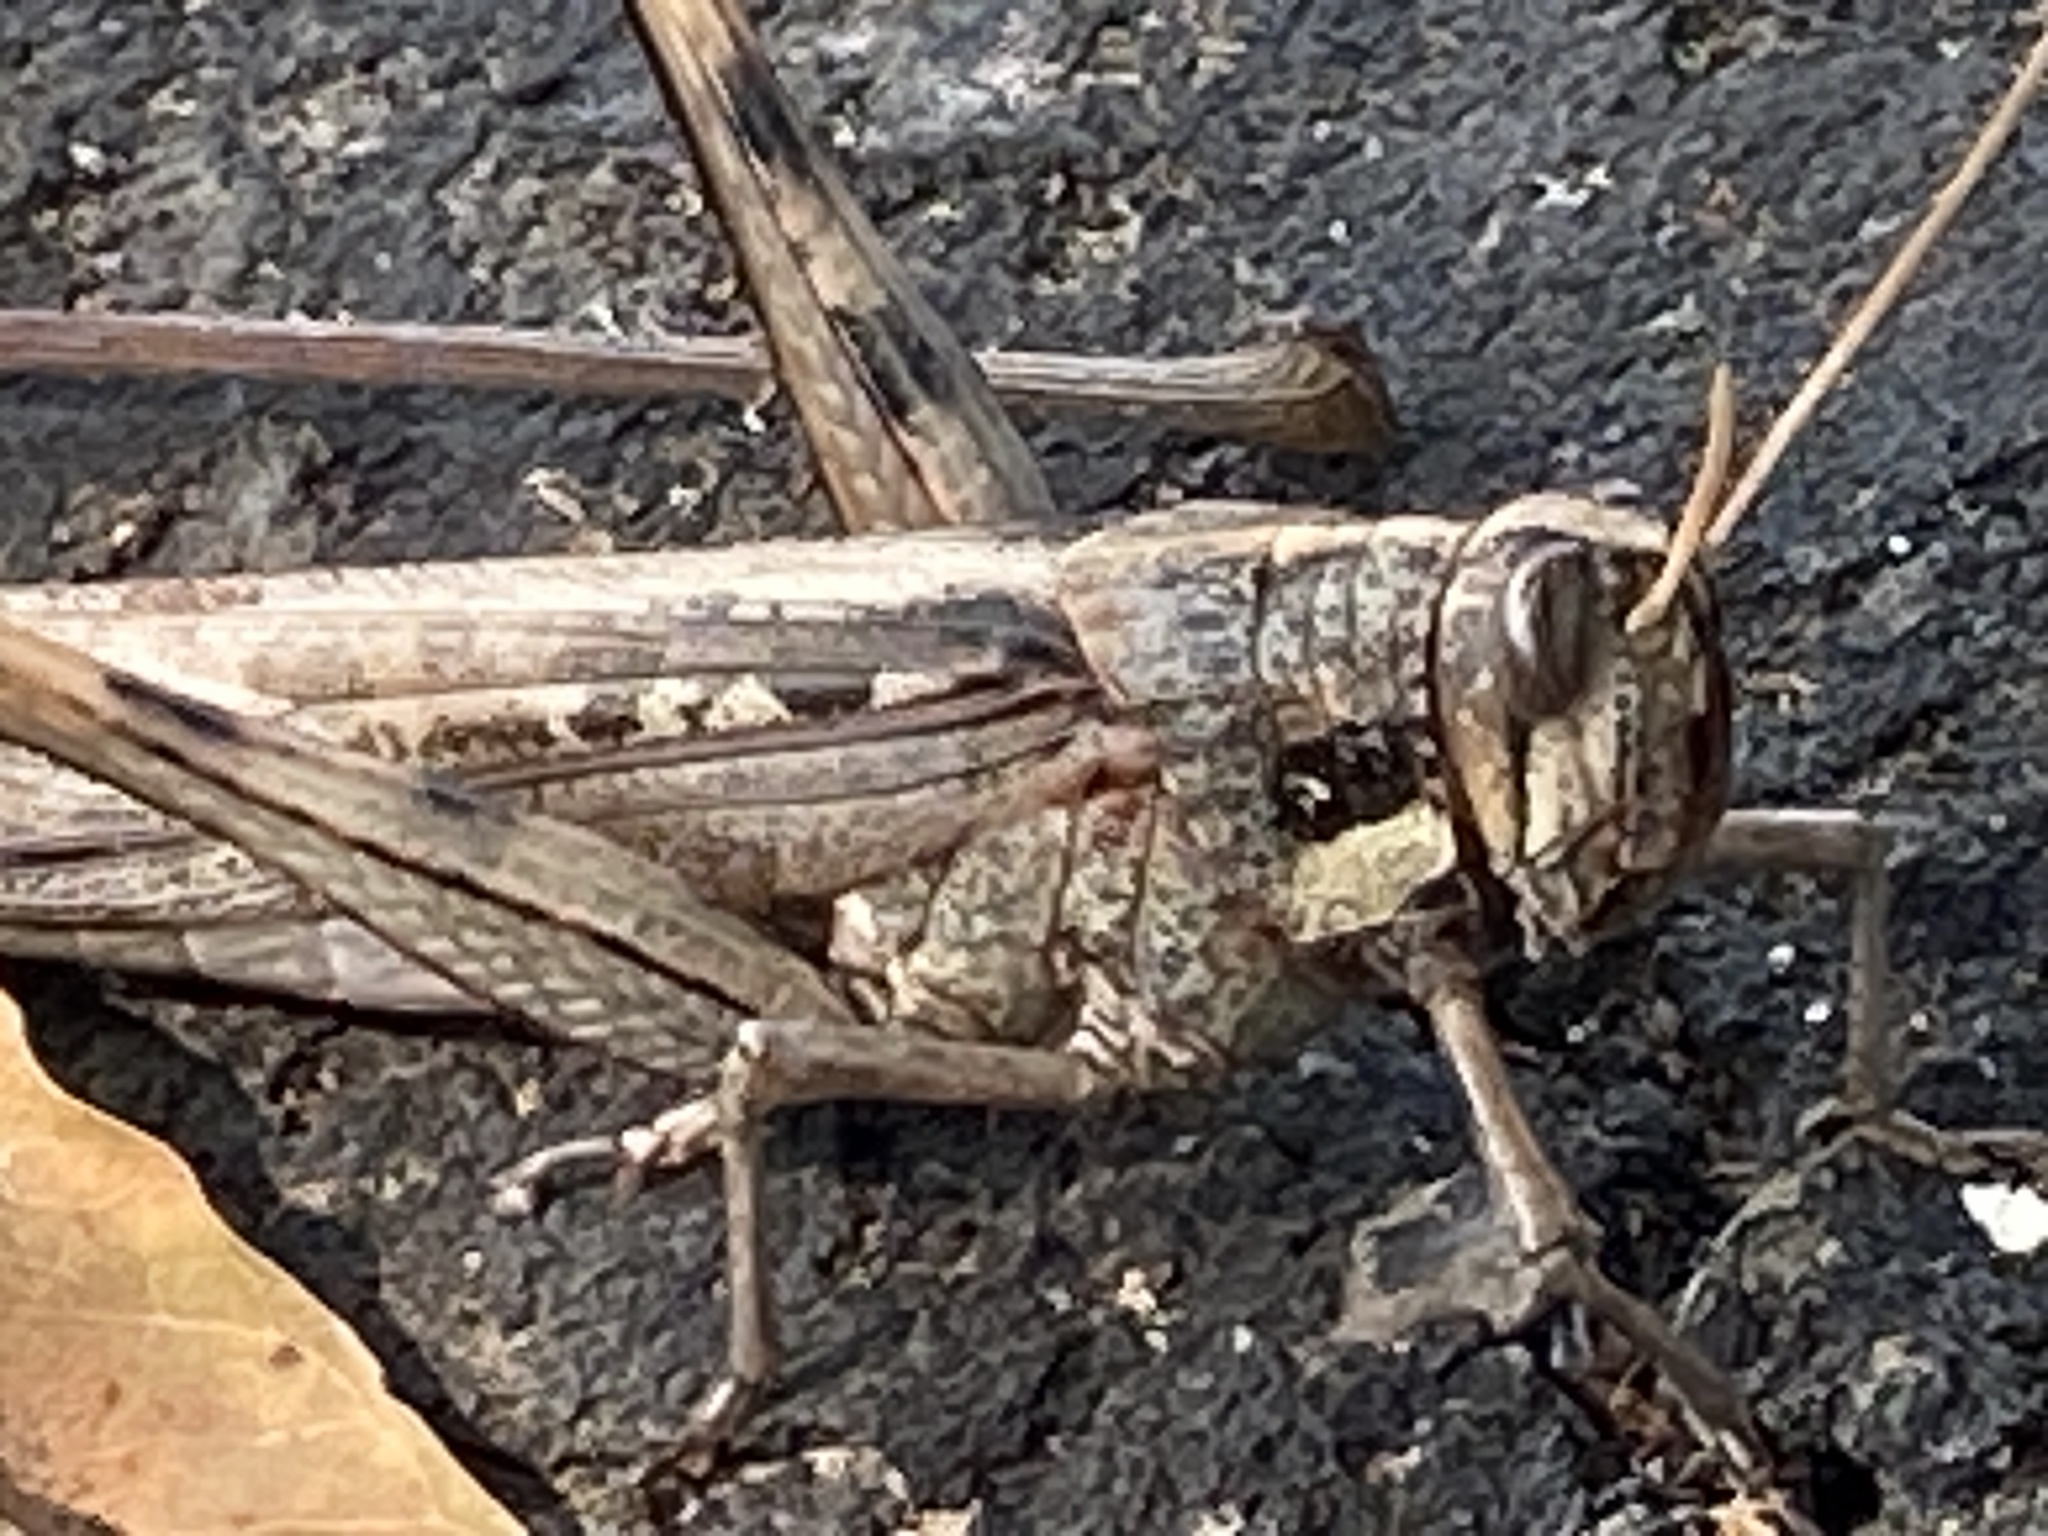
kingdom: Animalia
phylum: Arthropoda
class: Insecta
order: Orthoptera
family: Acrididae
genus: Schistocerca
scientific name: Schistocerca nitens
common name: Vagrant grasshopper
